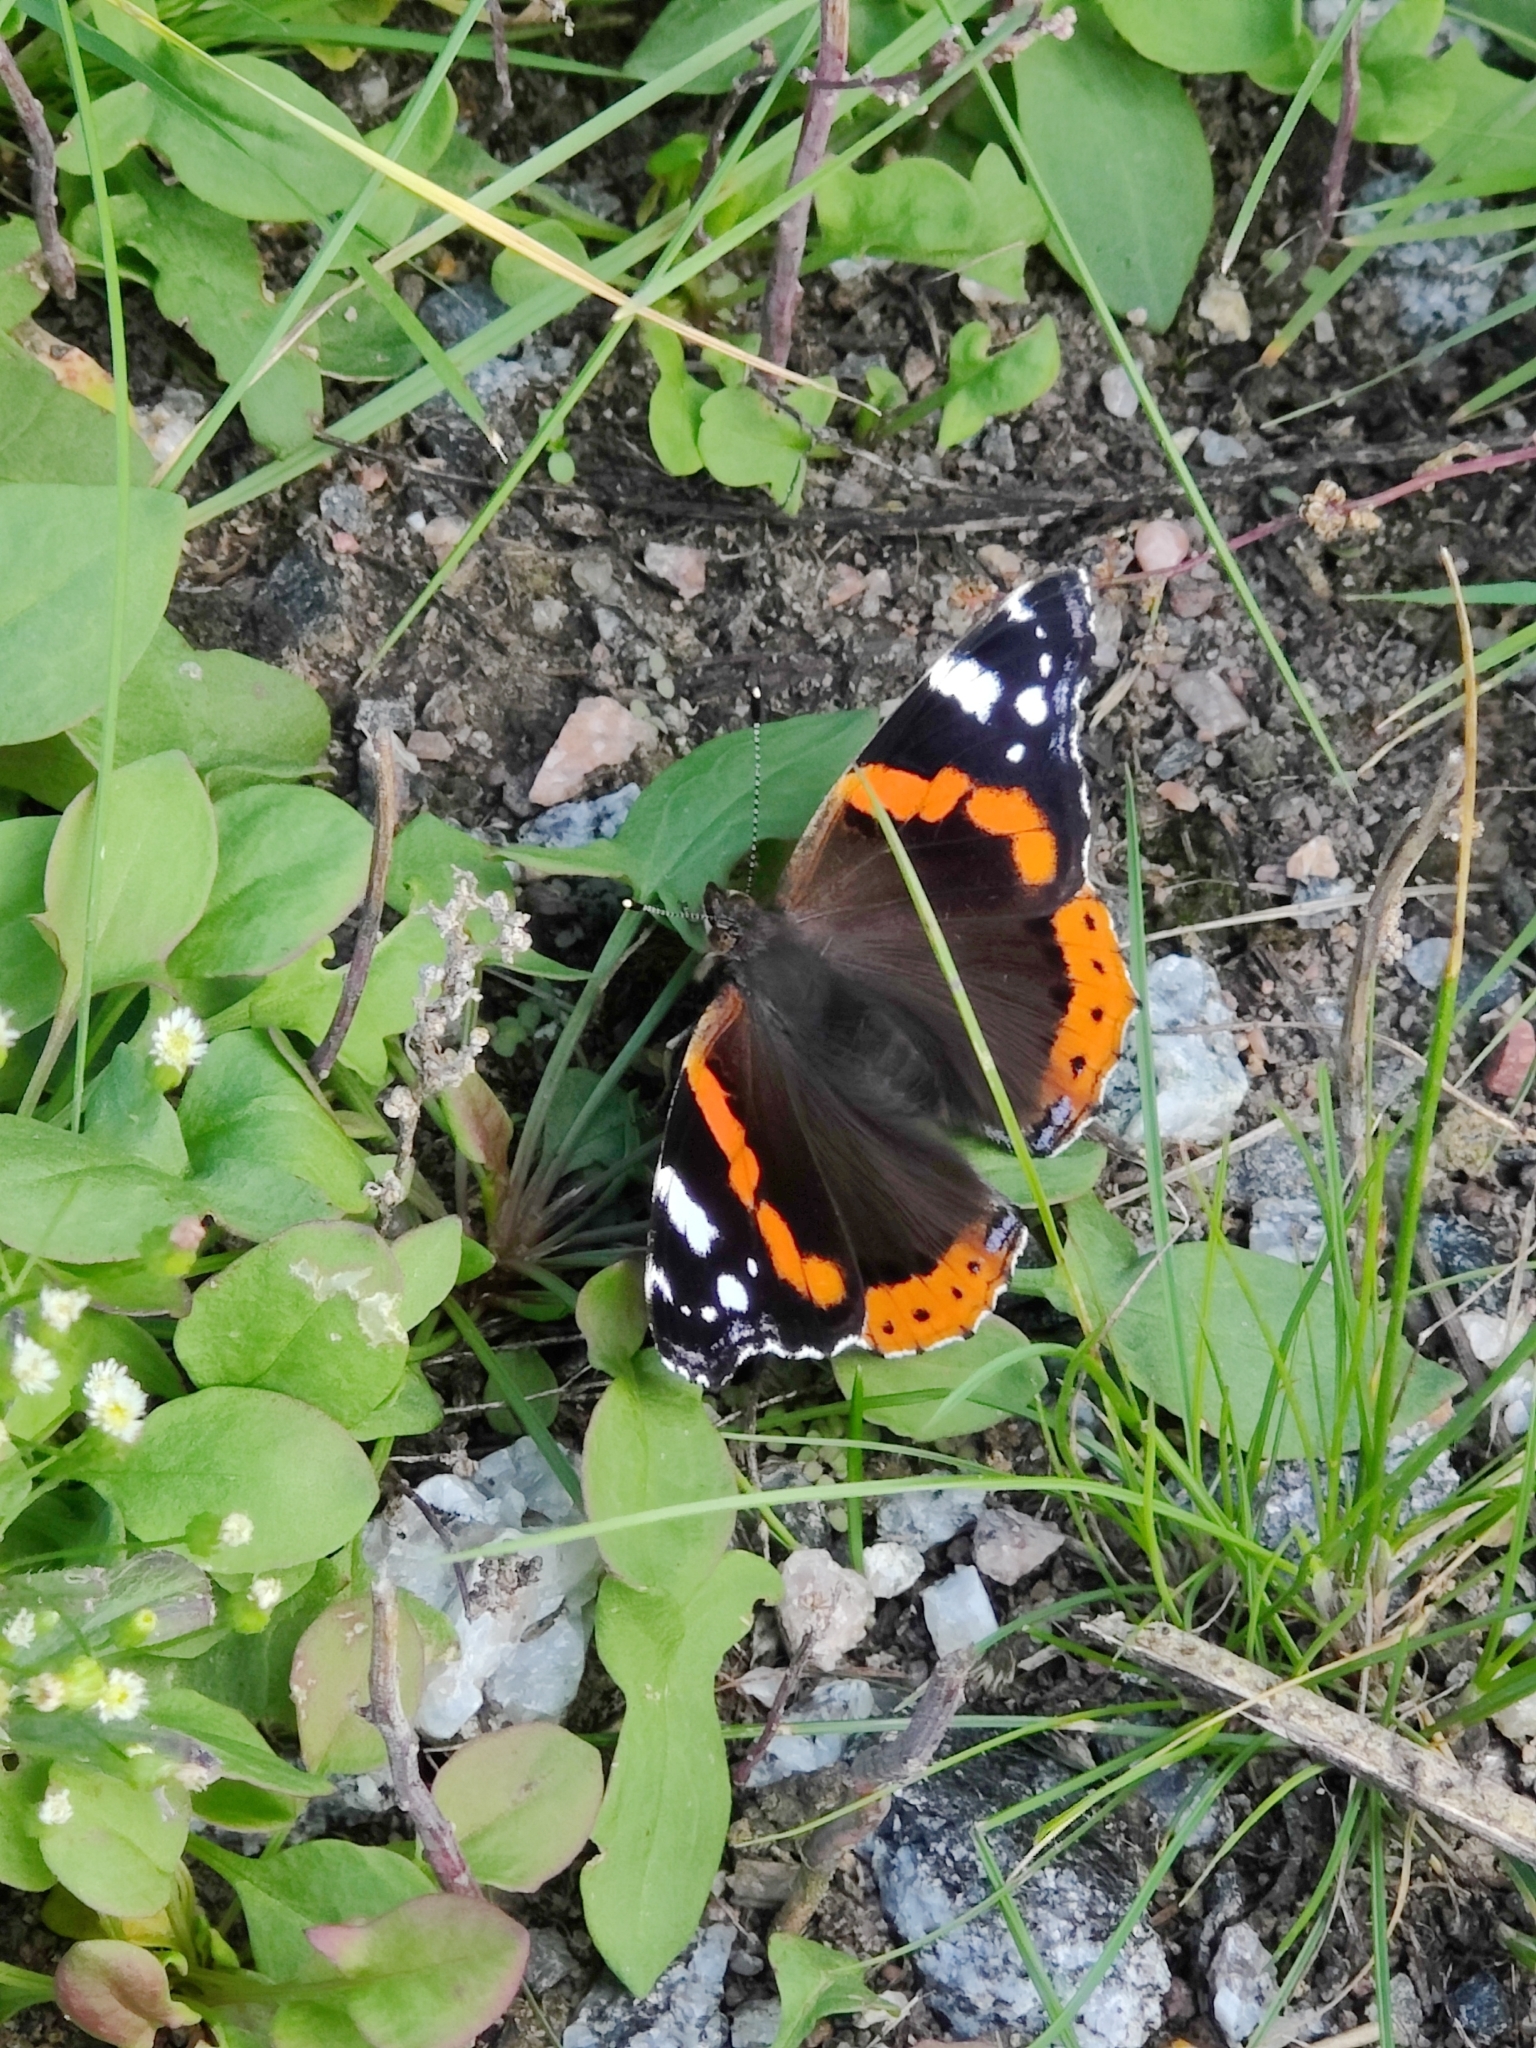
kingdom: Animalia
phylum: Arthropoda
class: Insecta
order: Lepidoptera
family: Nymphalidae
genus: Vanessa
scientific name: Vanessa atalanta
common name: Red admiral
